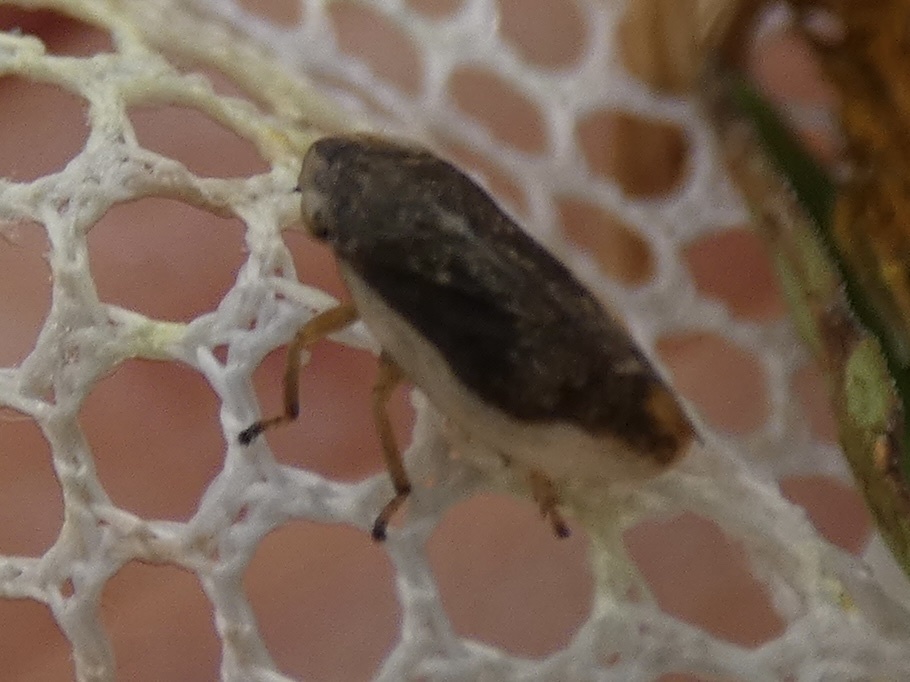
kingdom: Animalia
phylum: Arthropoda
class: Insecta
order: Hemiptera
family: Aphrophoridae
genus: Philaenus
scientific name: Philaenus spumarius
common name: Meadow spittlebug
